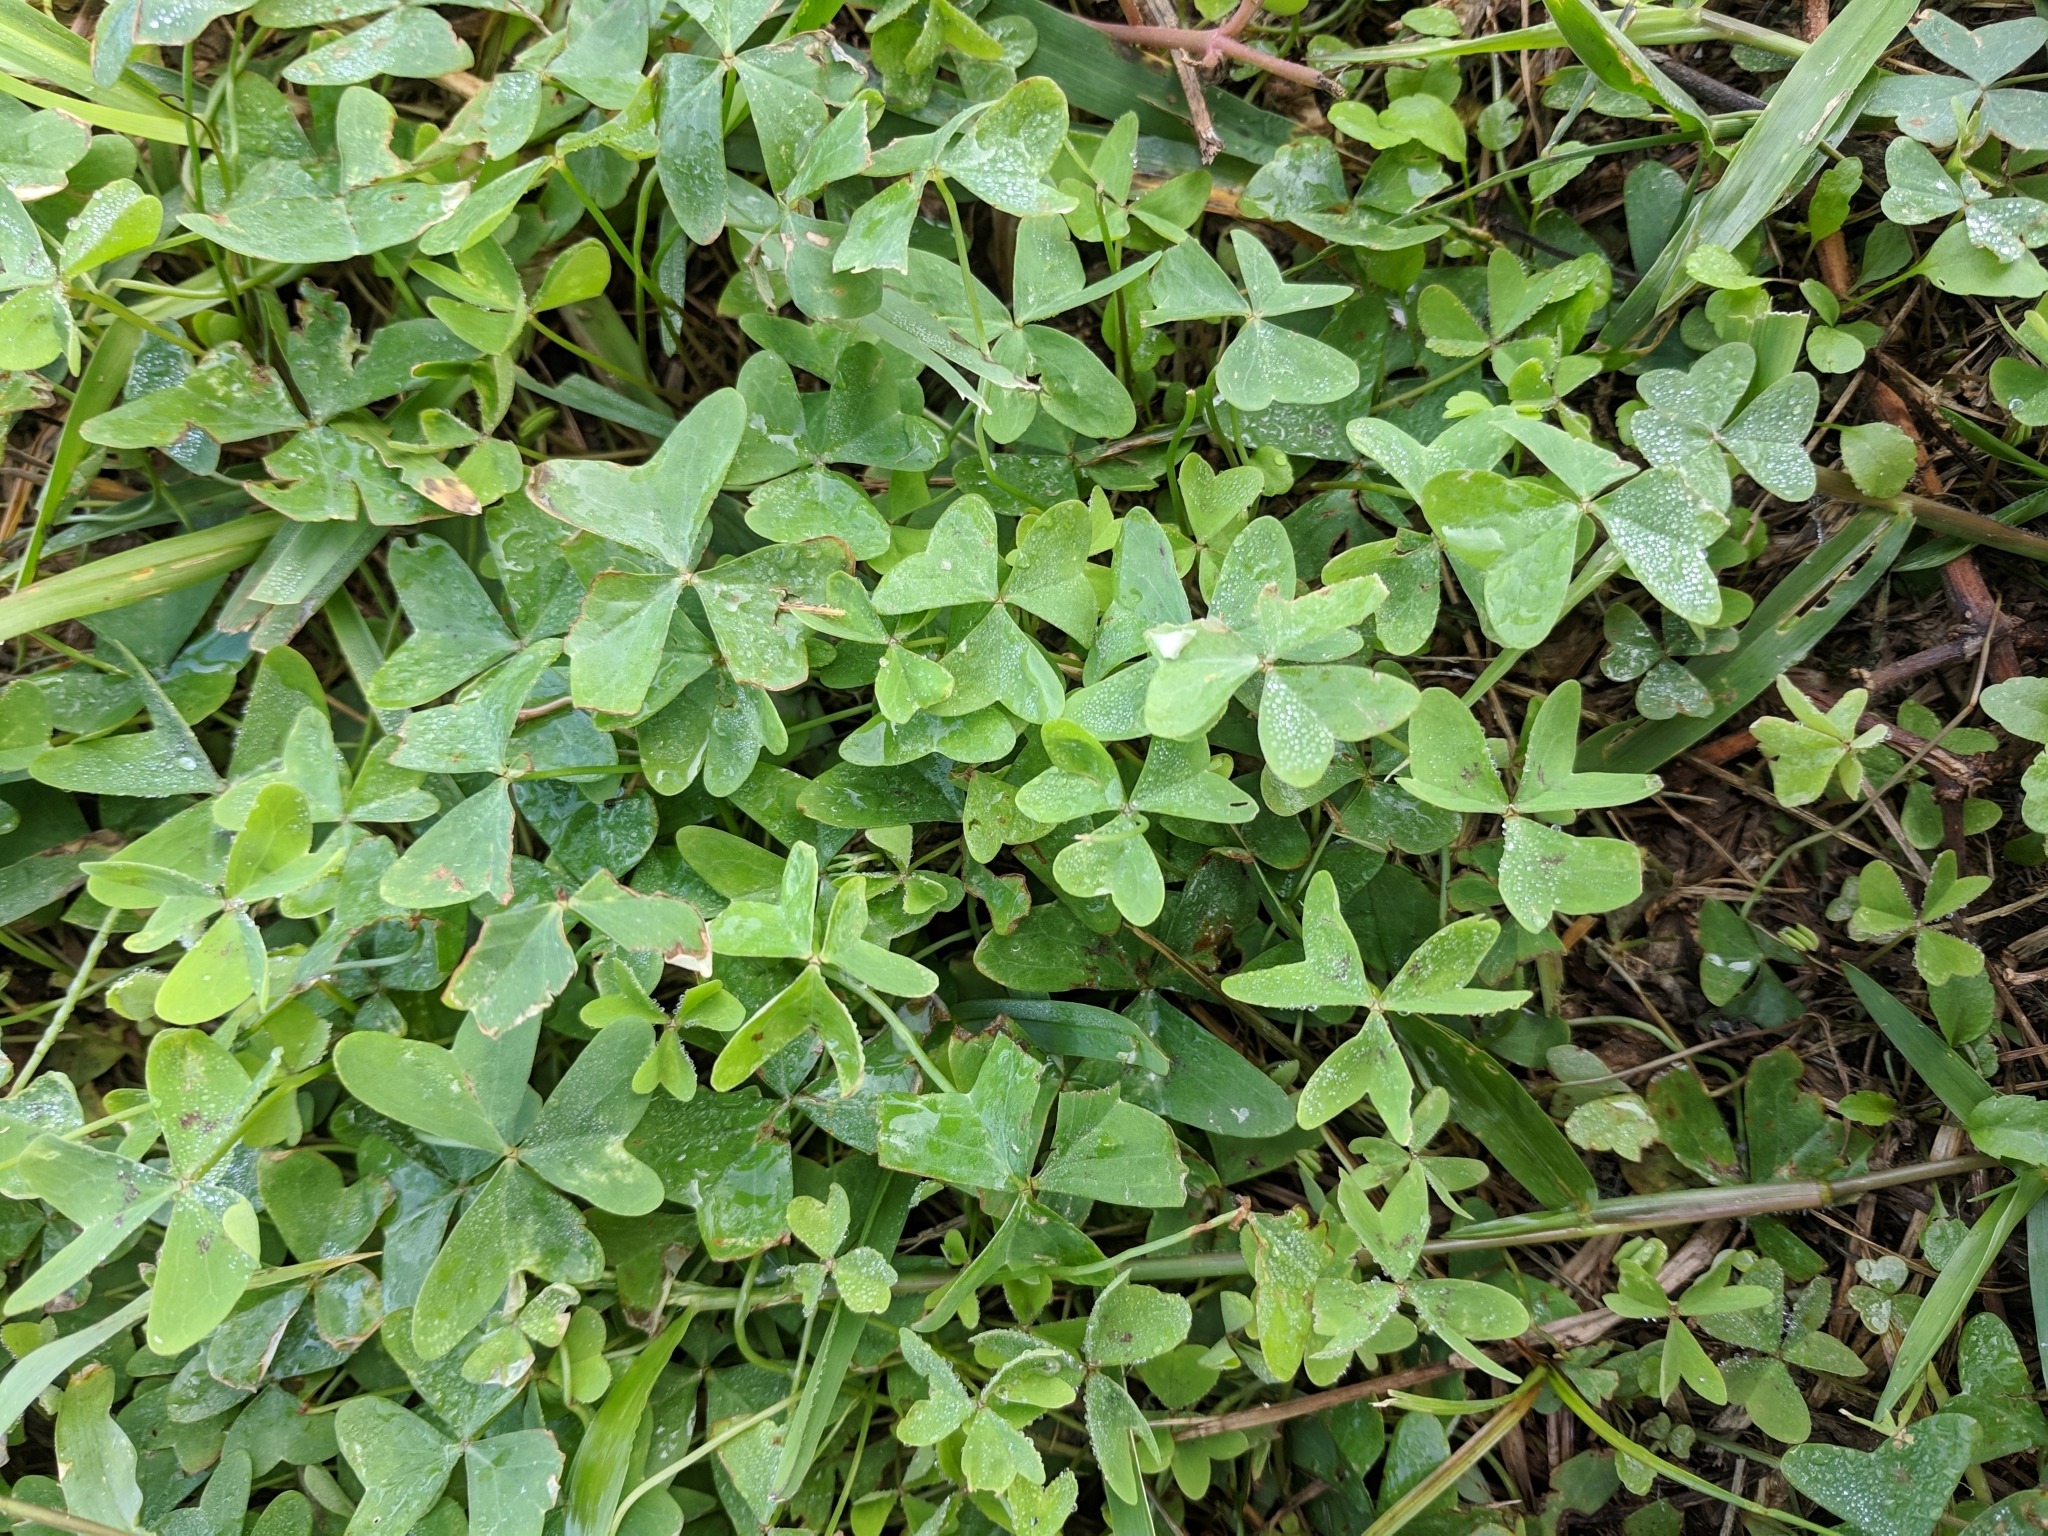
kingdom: Plantae
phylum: Tracheophyta
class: Magnoliopsida
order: Oxalidales
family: Oxalidaceae
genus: Oxalis
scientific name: Oxalis drummondii
